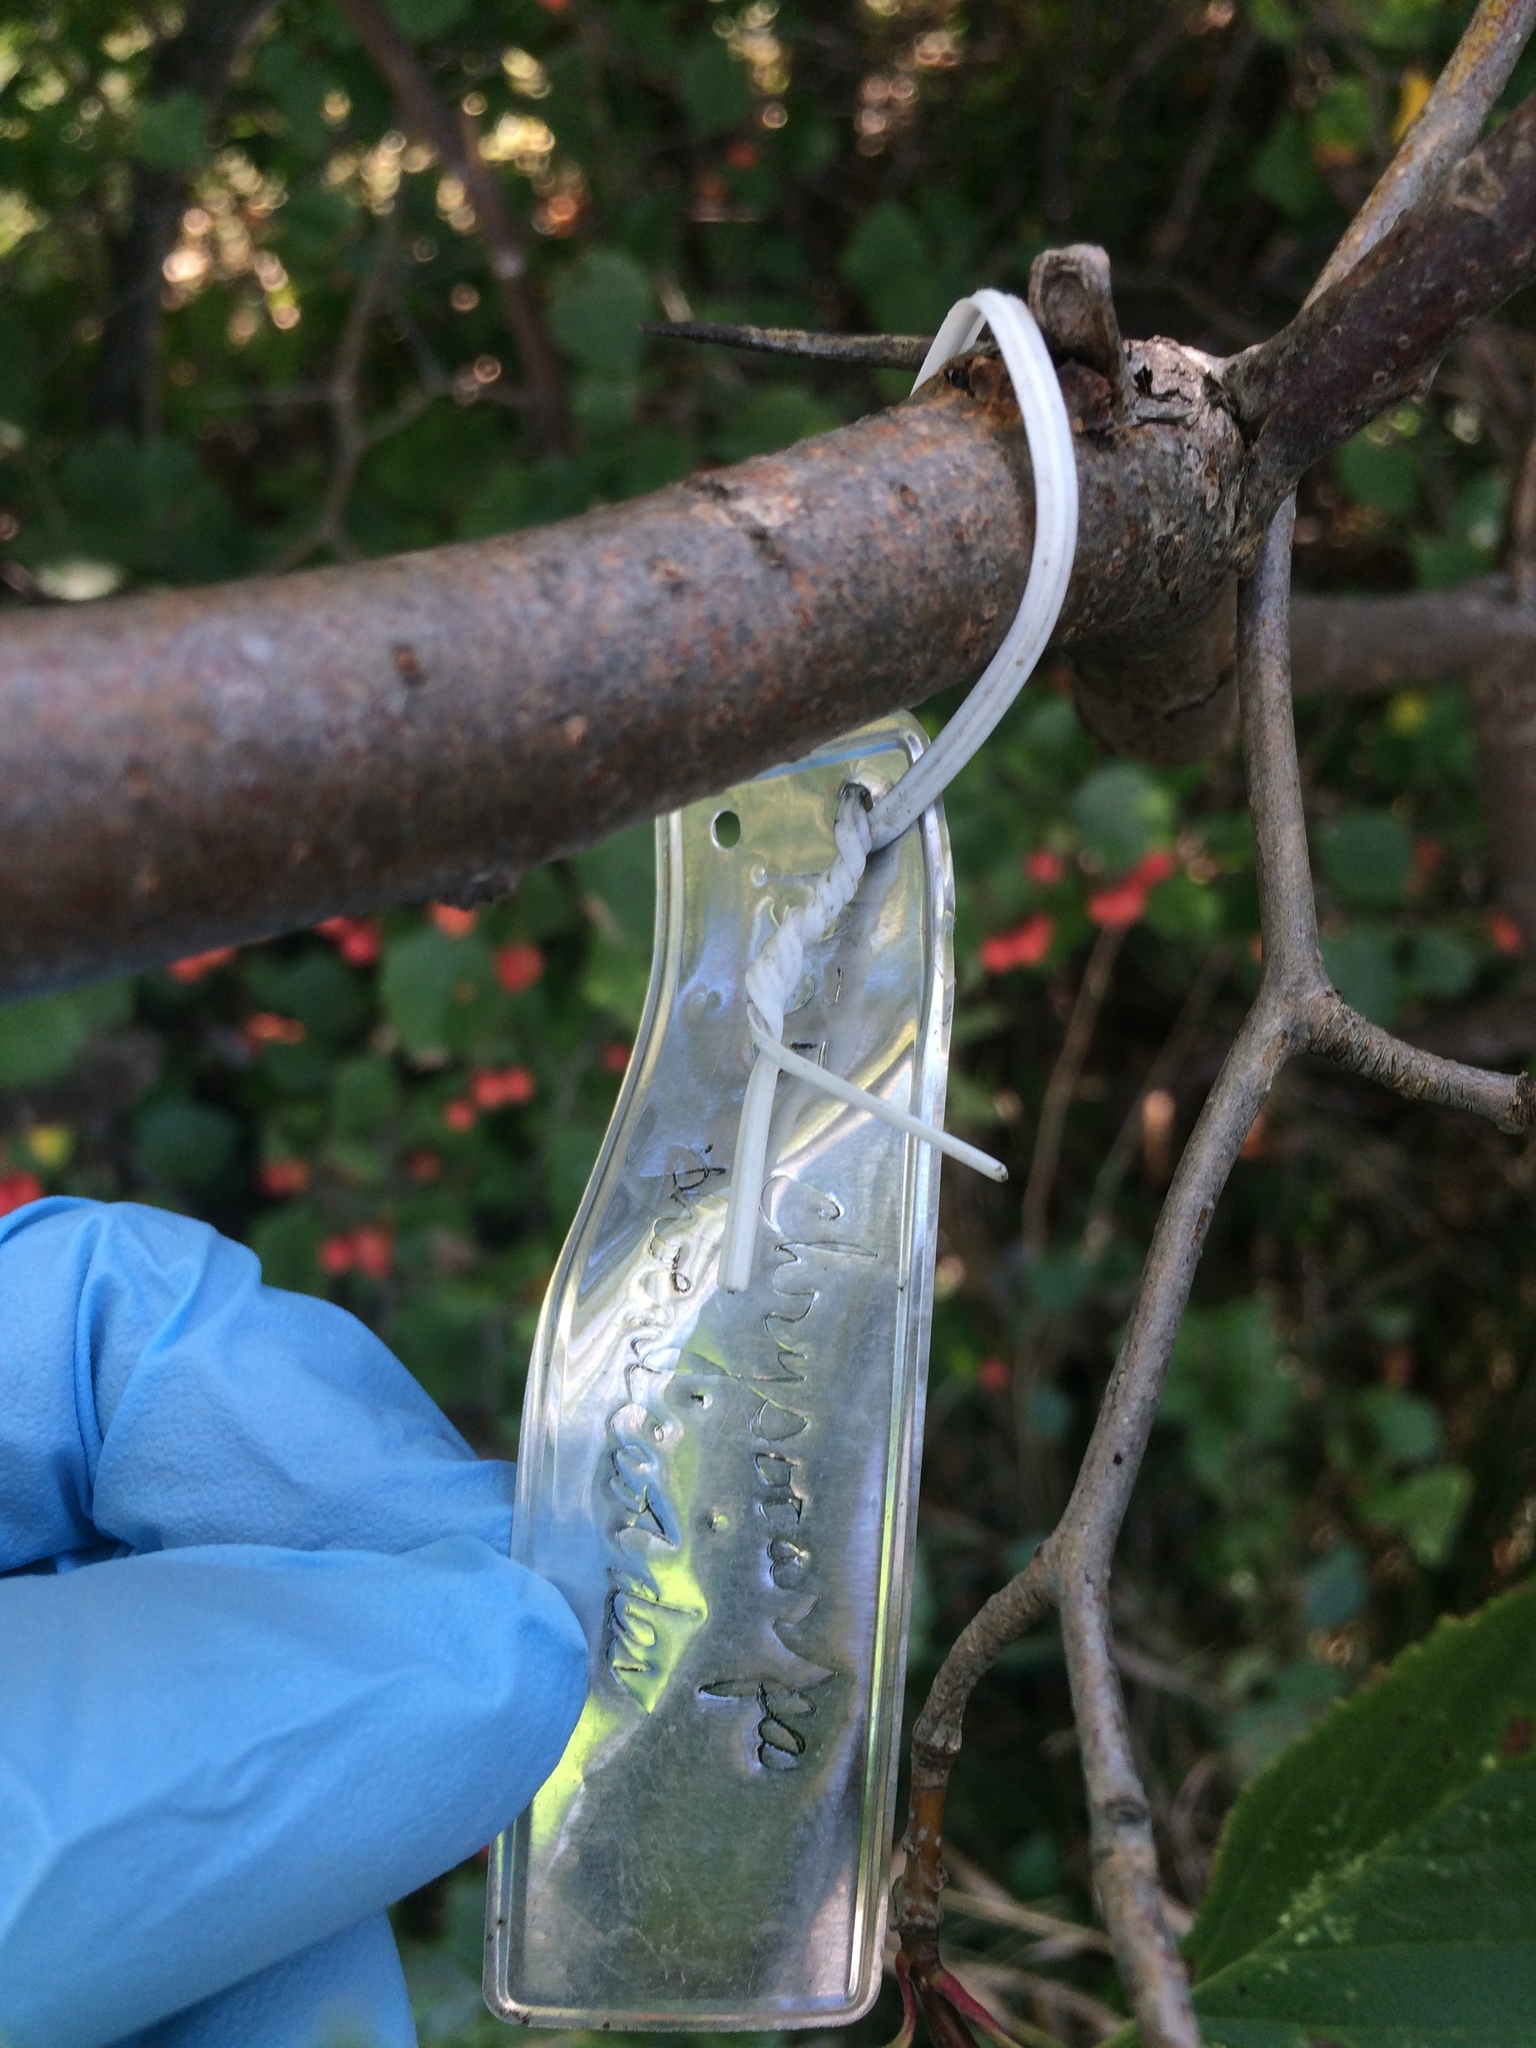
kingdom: Plantae
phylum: Tracheophyta
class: Magnoliopsida
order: Rosales
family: Rosaceae
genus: Crataegus
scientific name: Crataegus chrysocarpa
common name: Fire-berry hawthorn
